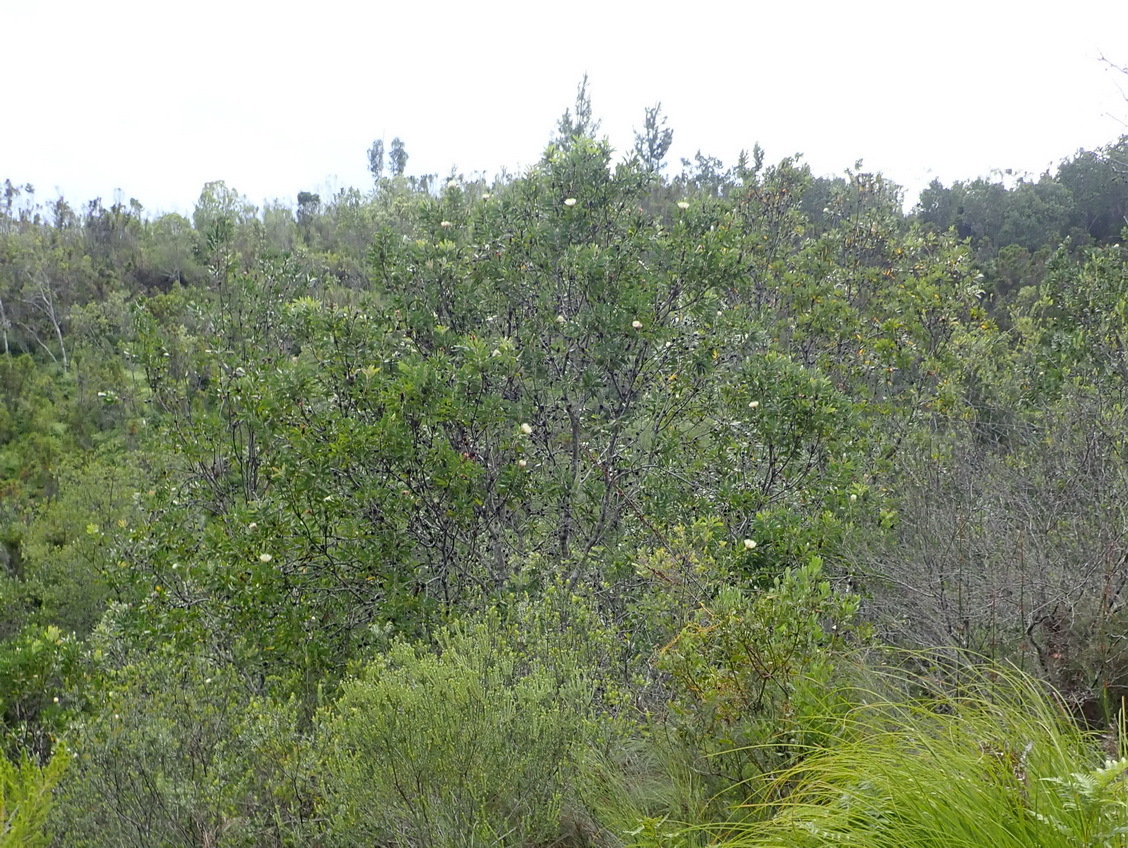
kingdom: Plantae
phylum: Tracheophyta
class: Magnoliopsida
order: Proteales
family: Proteaceae
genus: Protea
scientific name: Protea mundii
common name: Forest sugarbush
